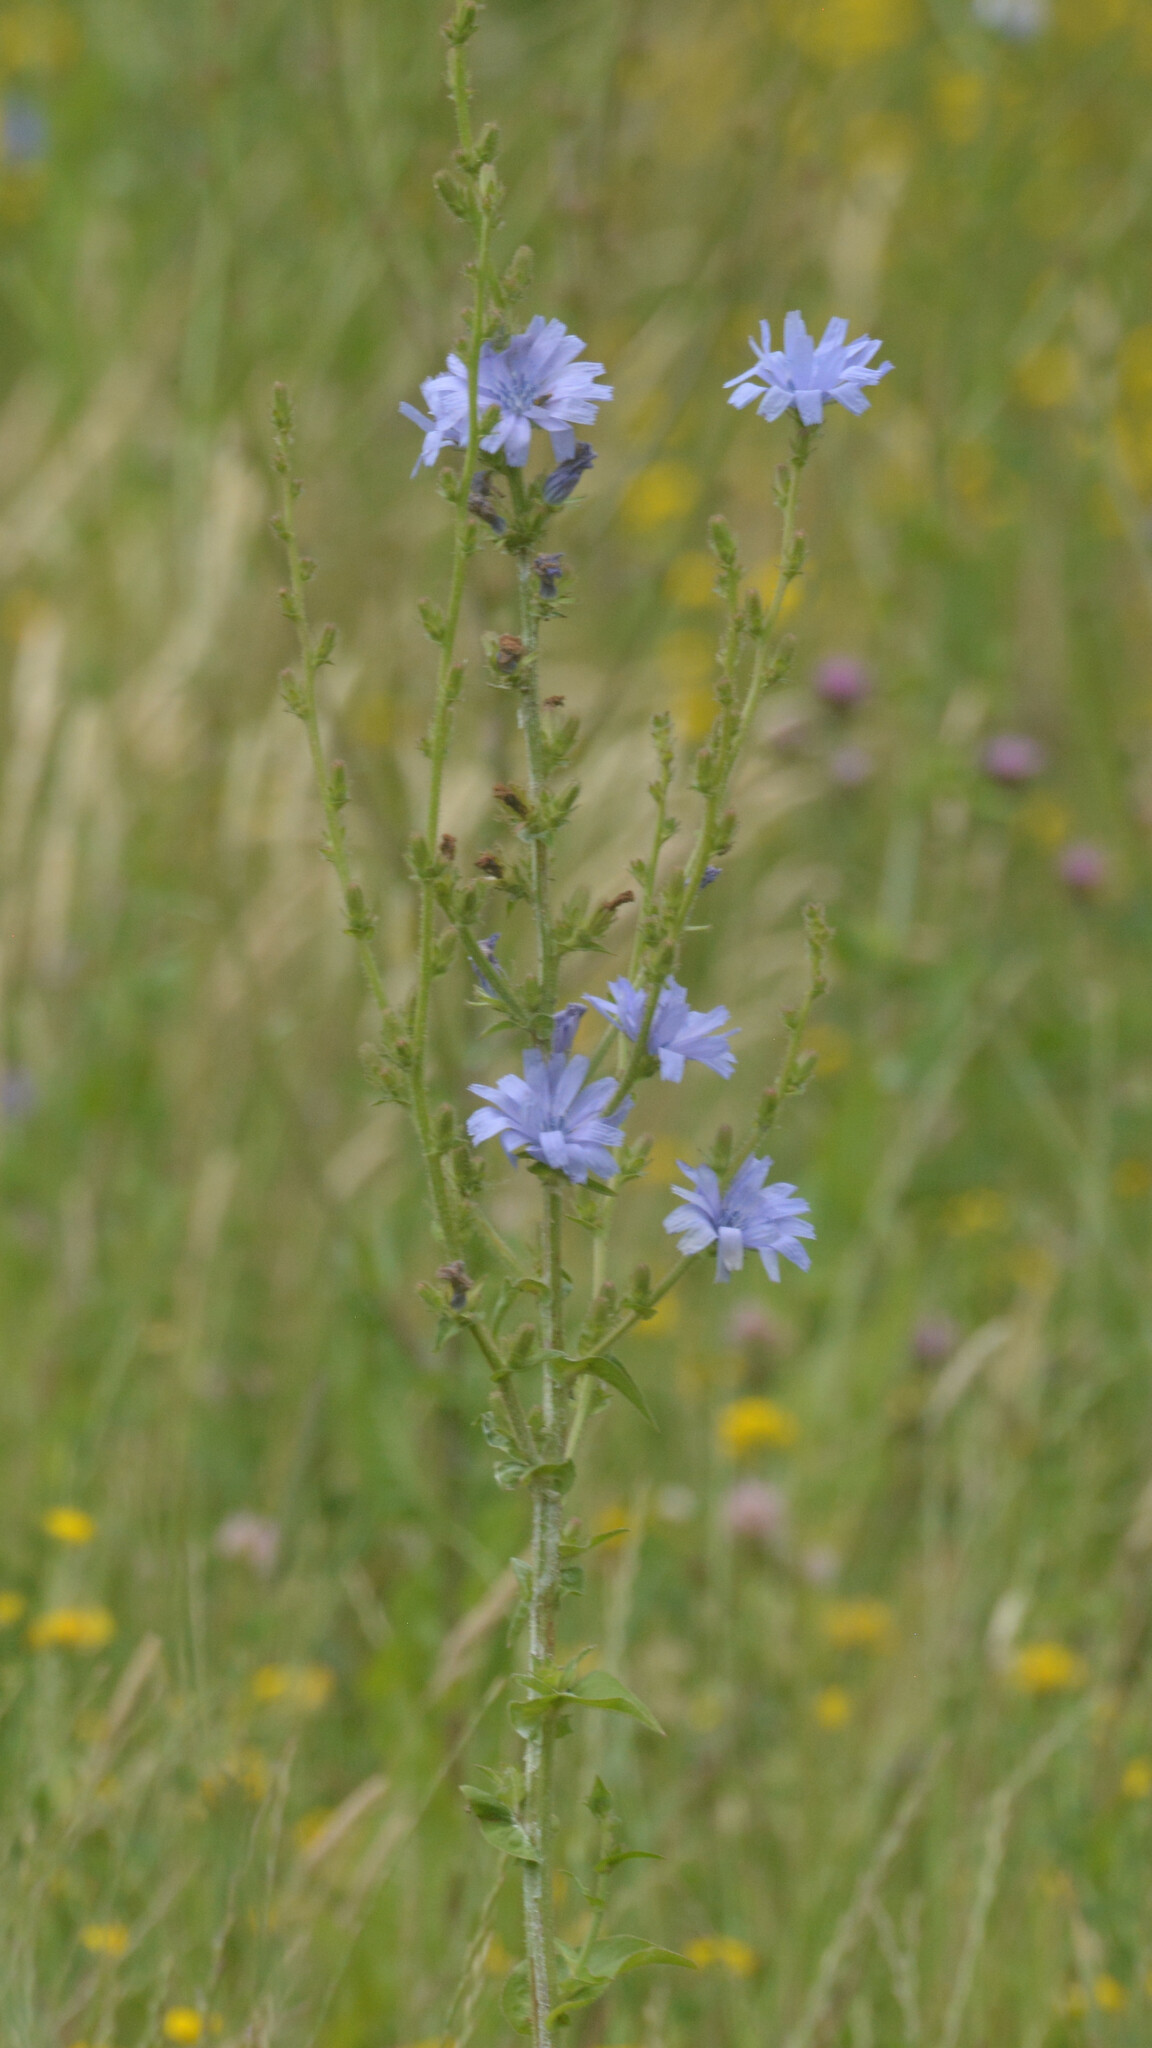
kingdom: Plantae
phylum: Tracheophyta
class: Magnoliopsida
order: Asterales
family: Asteraceae
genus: Cichorium
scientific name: Cichorium intybus
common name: Chicory
